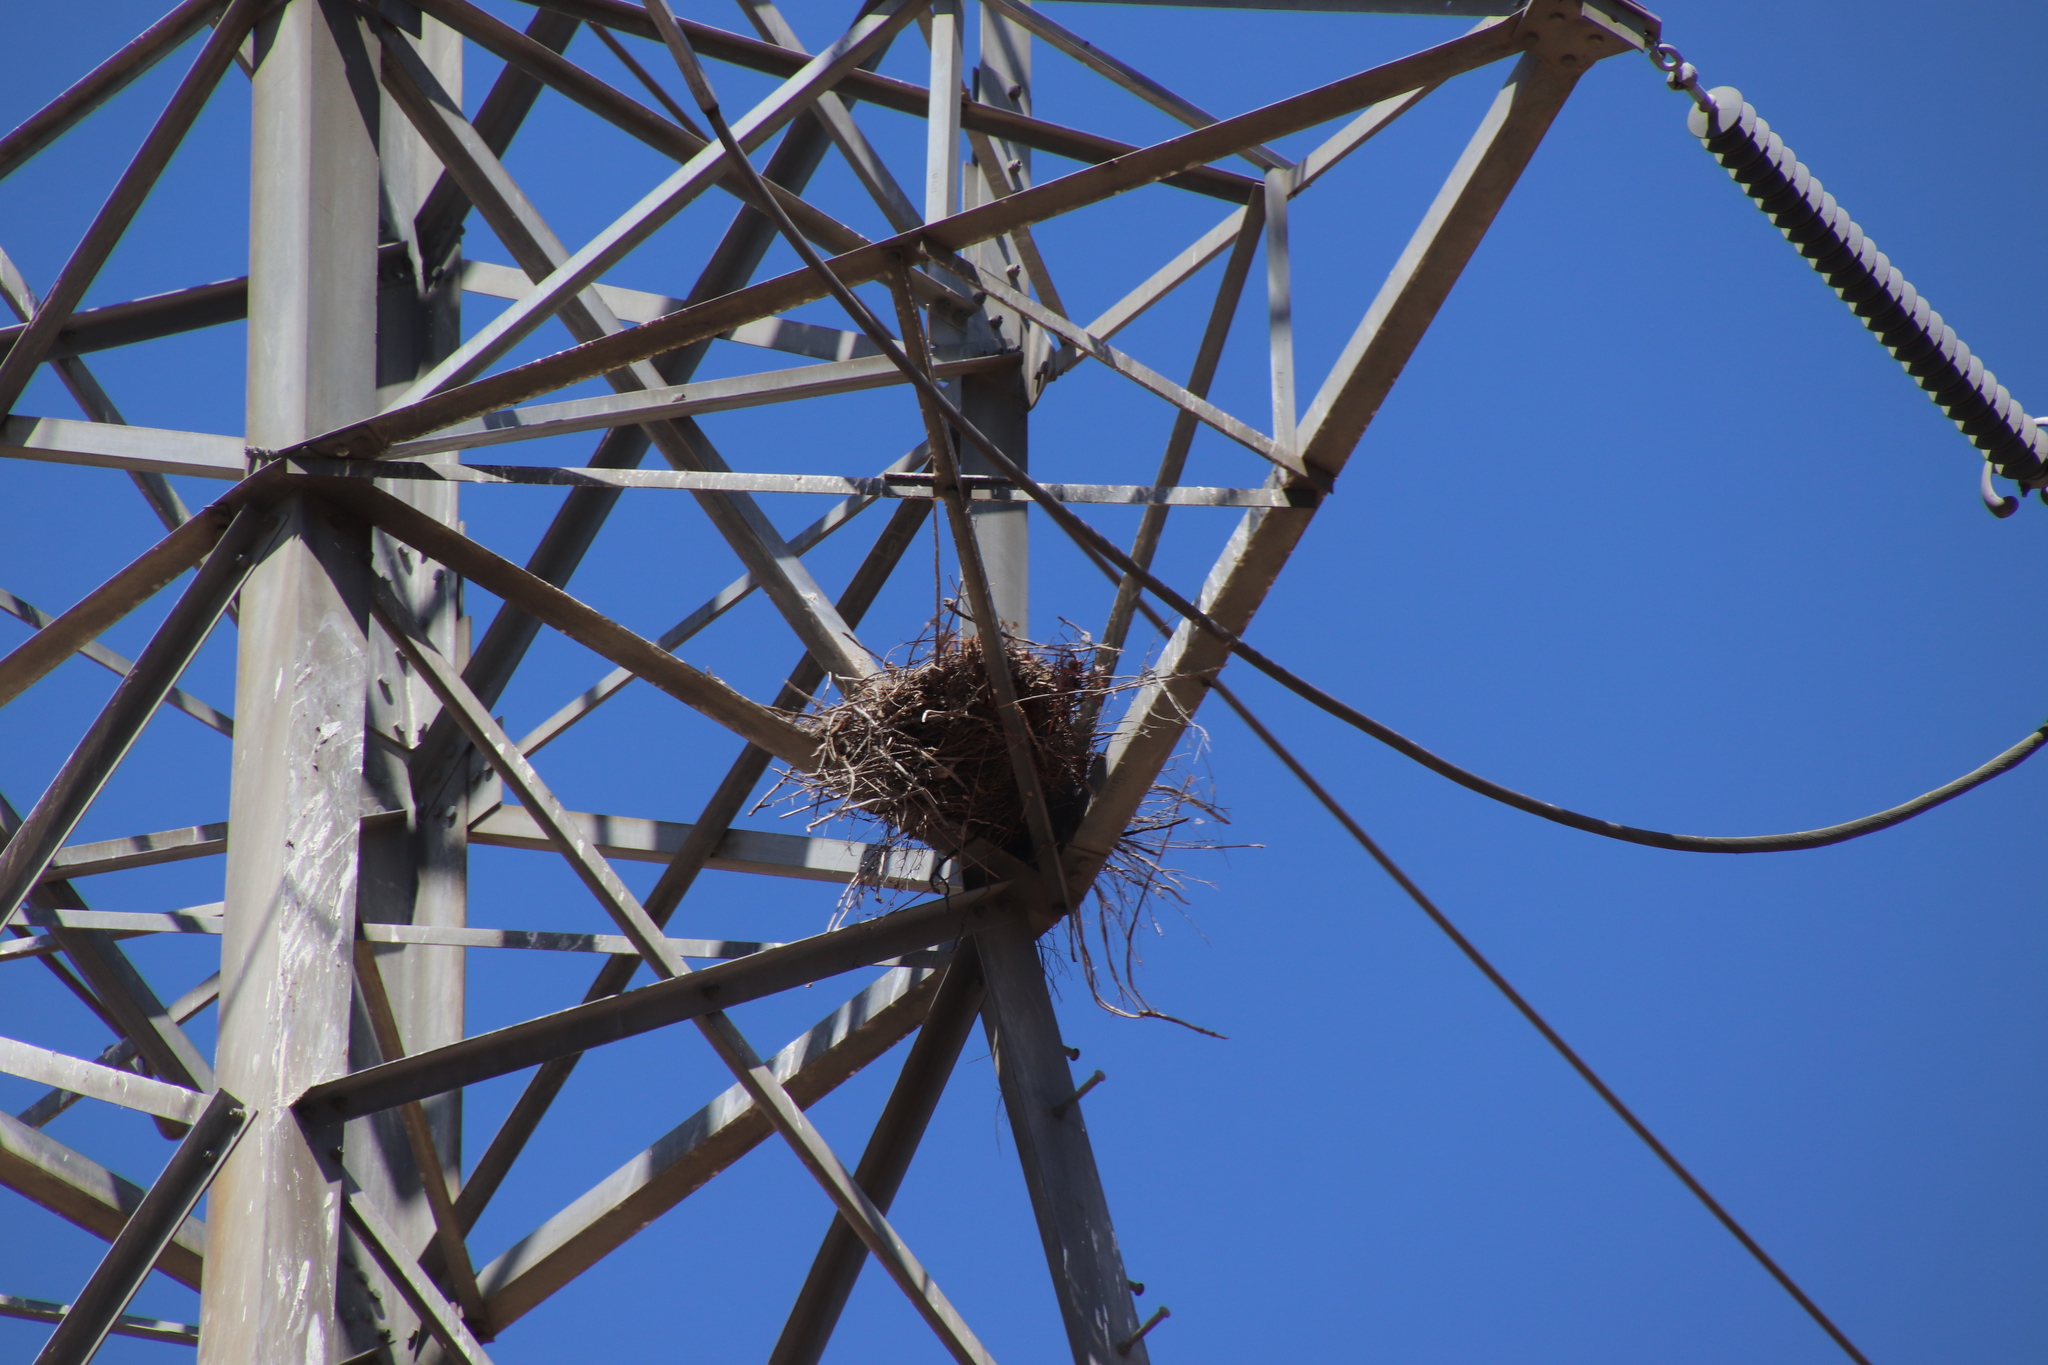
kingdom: Animalia
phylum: Chordata
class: Aves
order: Accipitriformes
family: Accipitridae
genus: Buteo
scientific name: Buteo jamaicensis
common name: Red-tailed hawk
